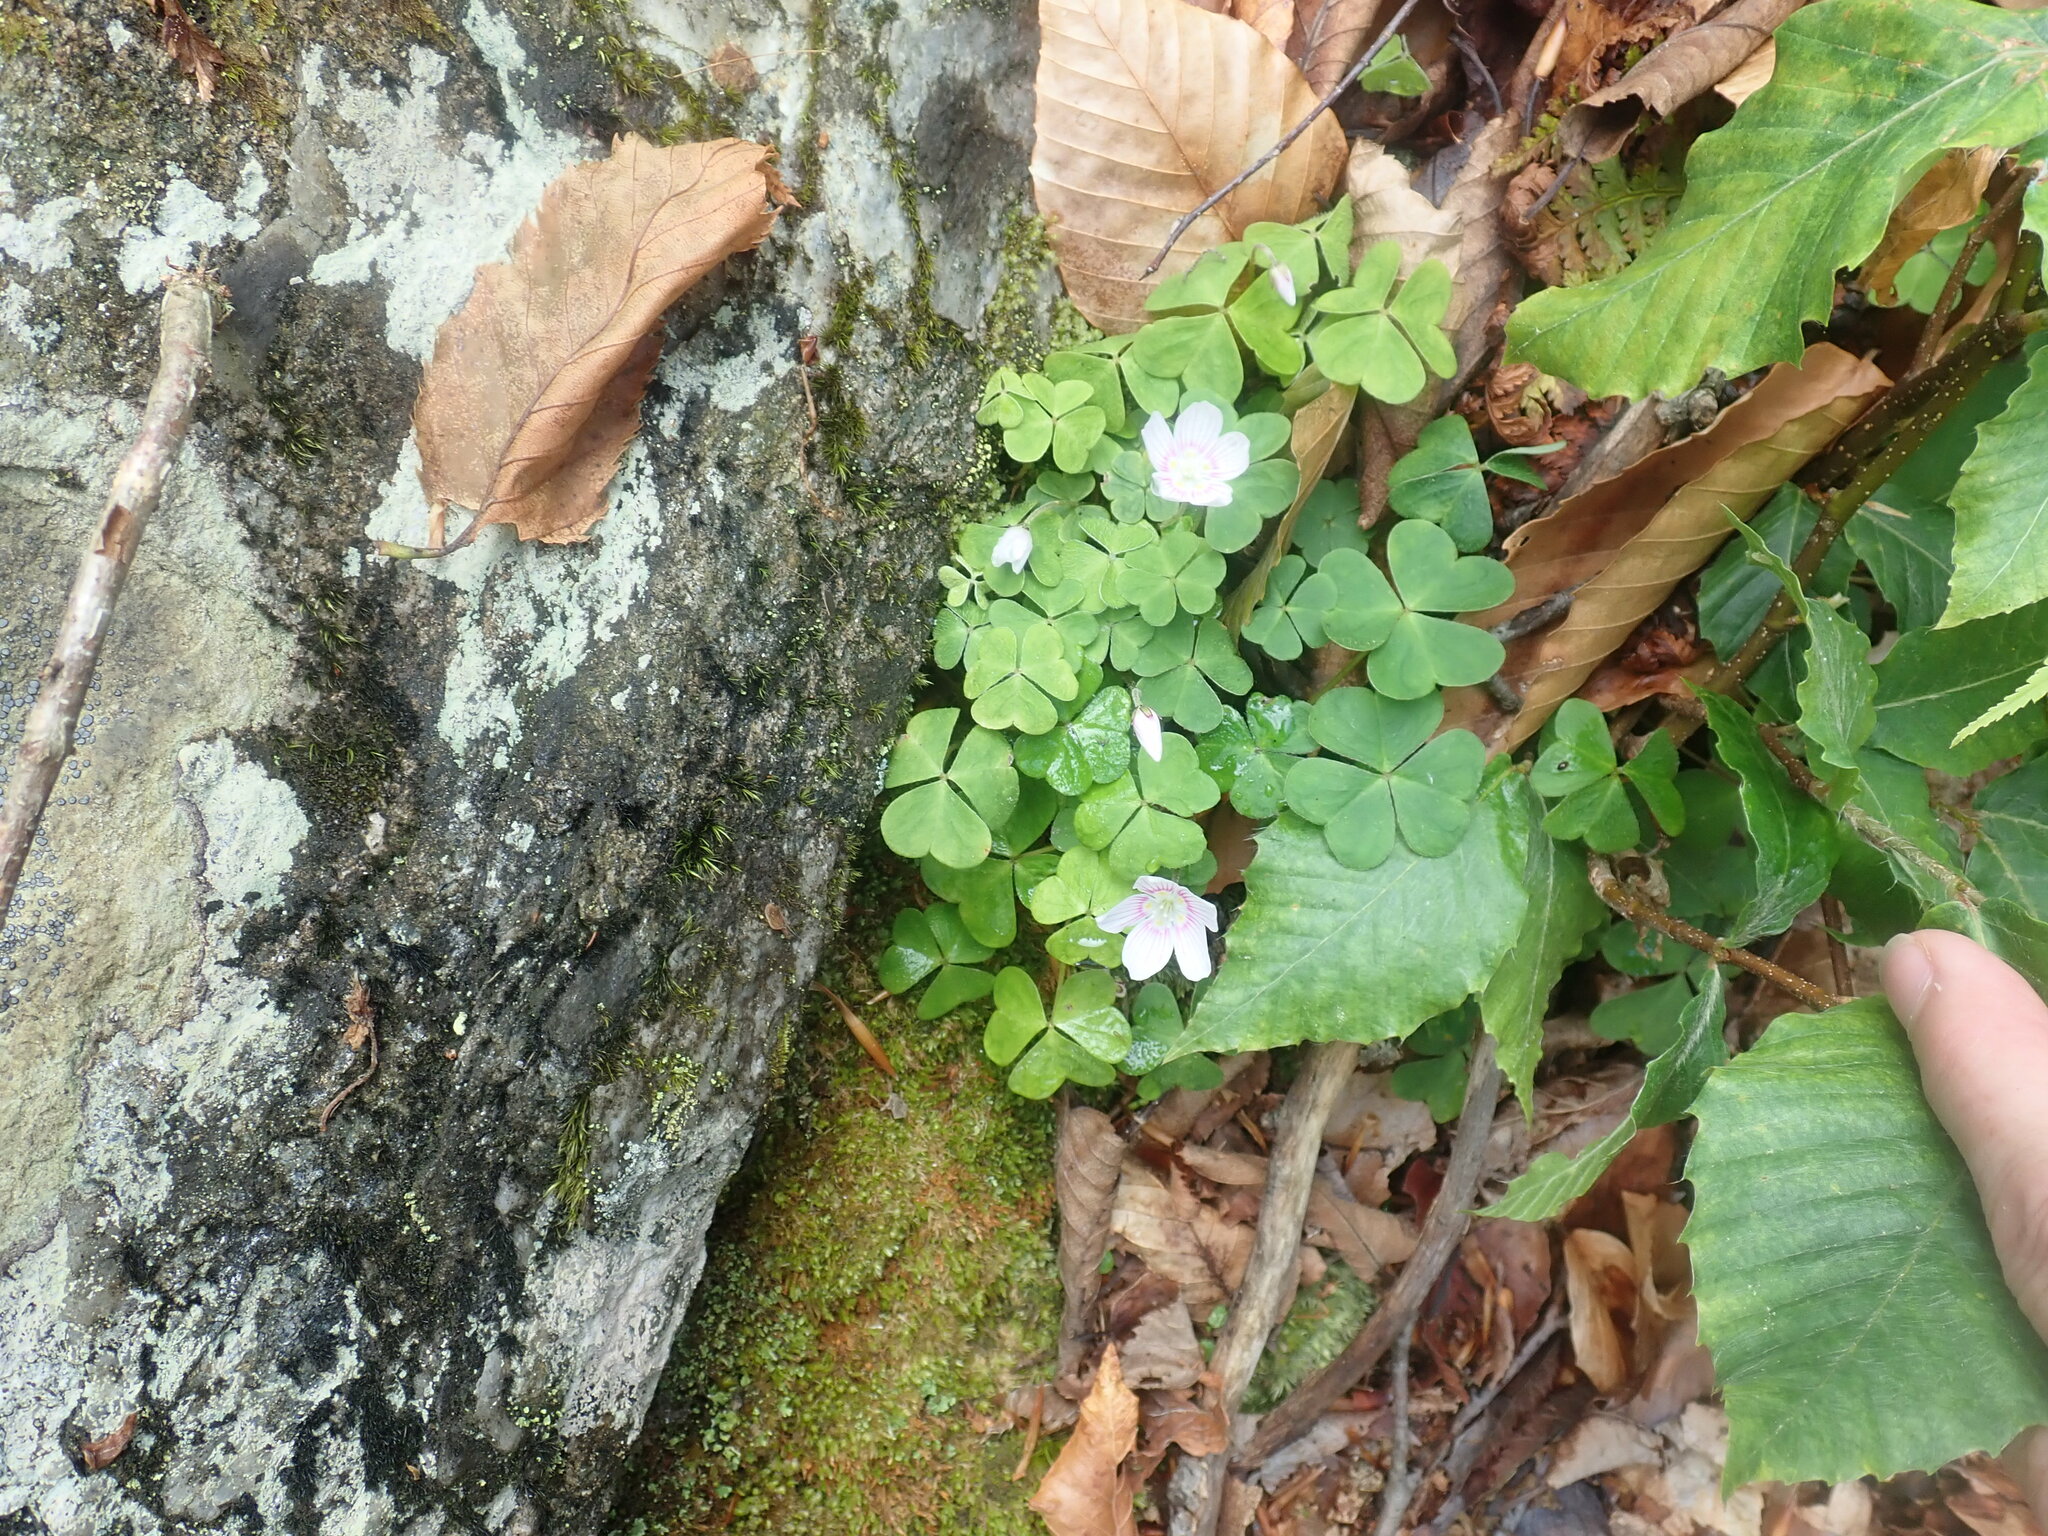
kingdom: Plantae
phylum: Tracheophyta
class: Magnoliopsida
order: Oxalidales
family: Oxalidaceae
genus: Oxalis
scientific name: Oxalis montana
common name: American wood-sorrel
